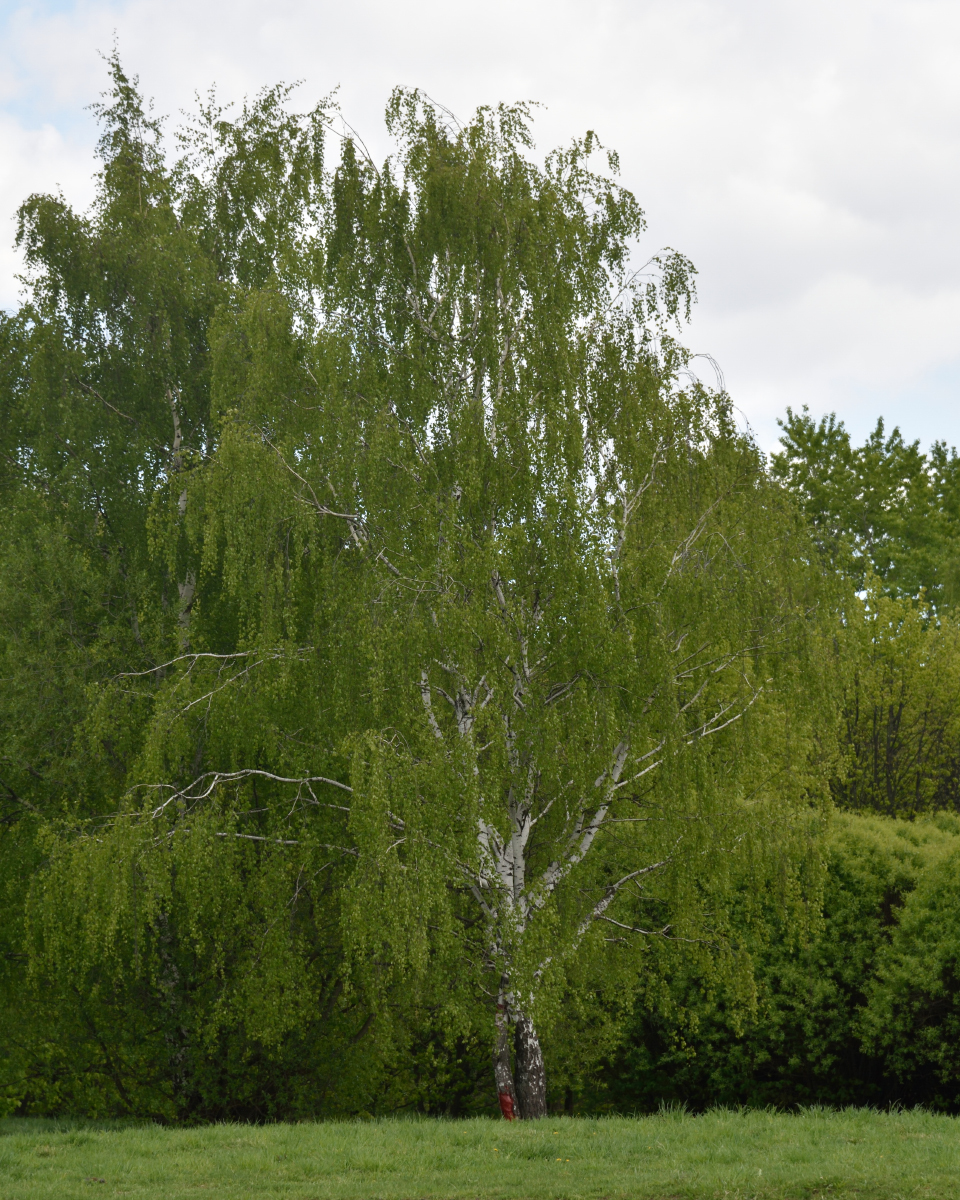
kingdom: Plantae
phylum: Tracheophyta
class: Magnoliopsida
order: Fagales
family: Betulaceae
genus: Betula
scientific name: Betula pendula
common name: Silver birch
